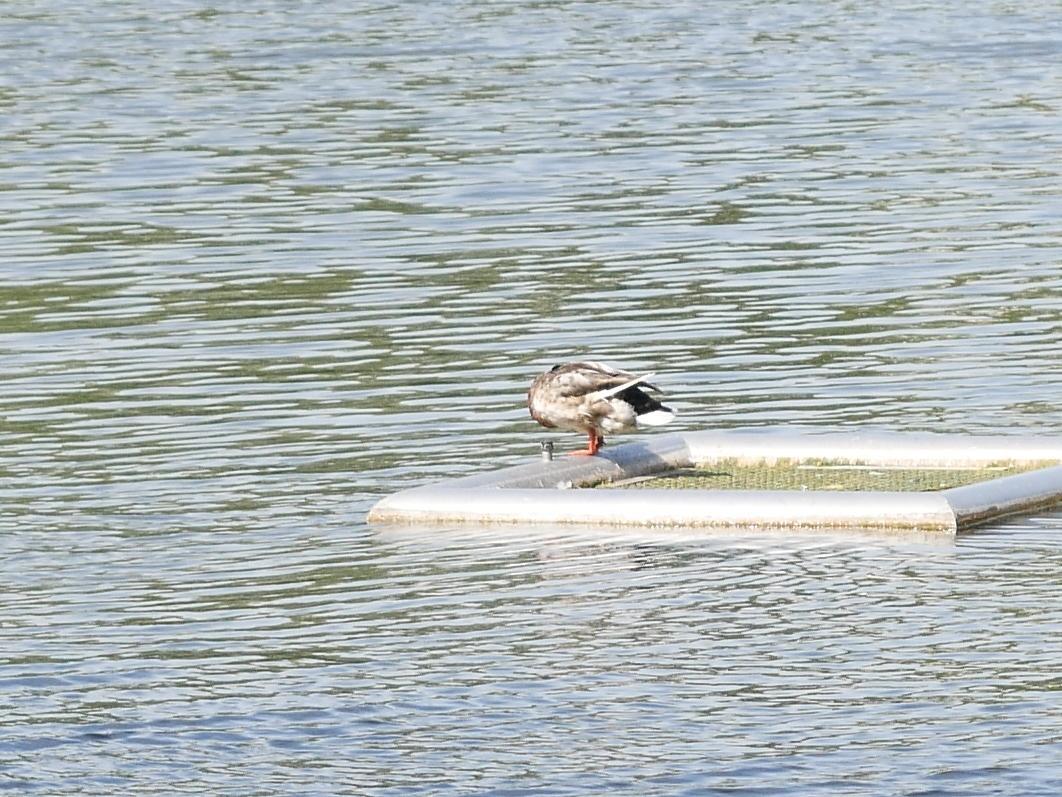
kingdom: Animalia
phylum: Chordata
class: Aves
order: Anseriformes
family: Anatidae
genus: Anas
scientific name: Anas platyrhynchos
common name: Mallard
